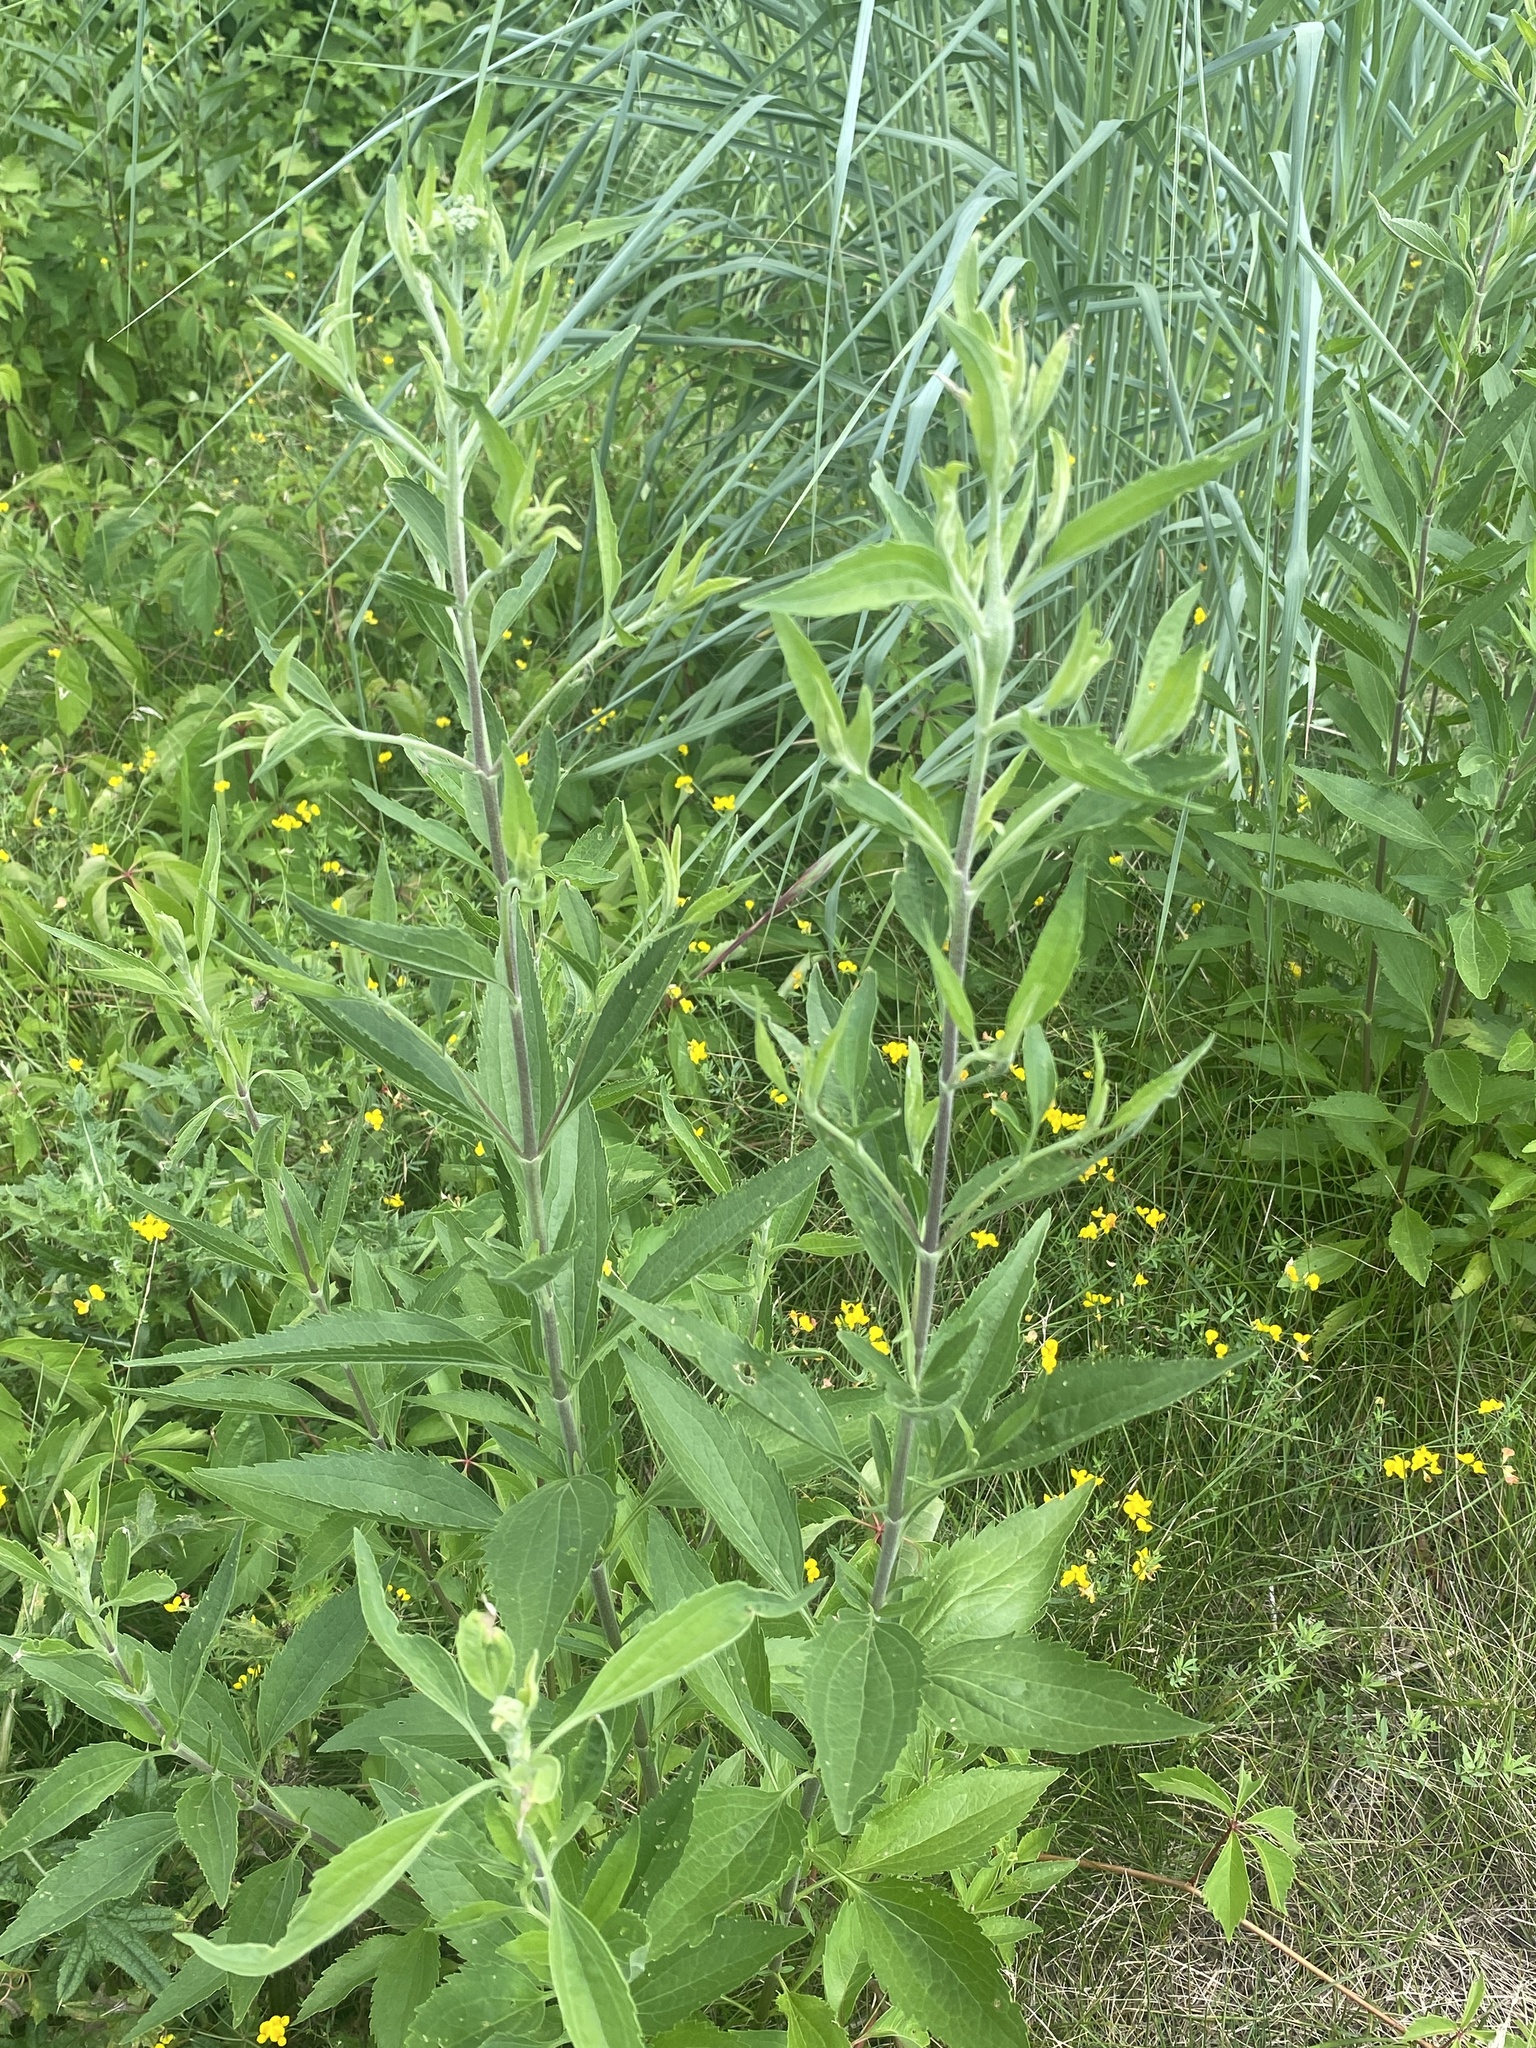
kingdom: Plantae
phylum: Tracheophyta
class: Magnoliopsida
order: Asterales
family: Asteraceae
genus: Eupatorium
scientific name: Eupatorium serotinum
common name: Late boneset
